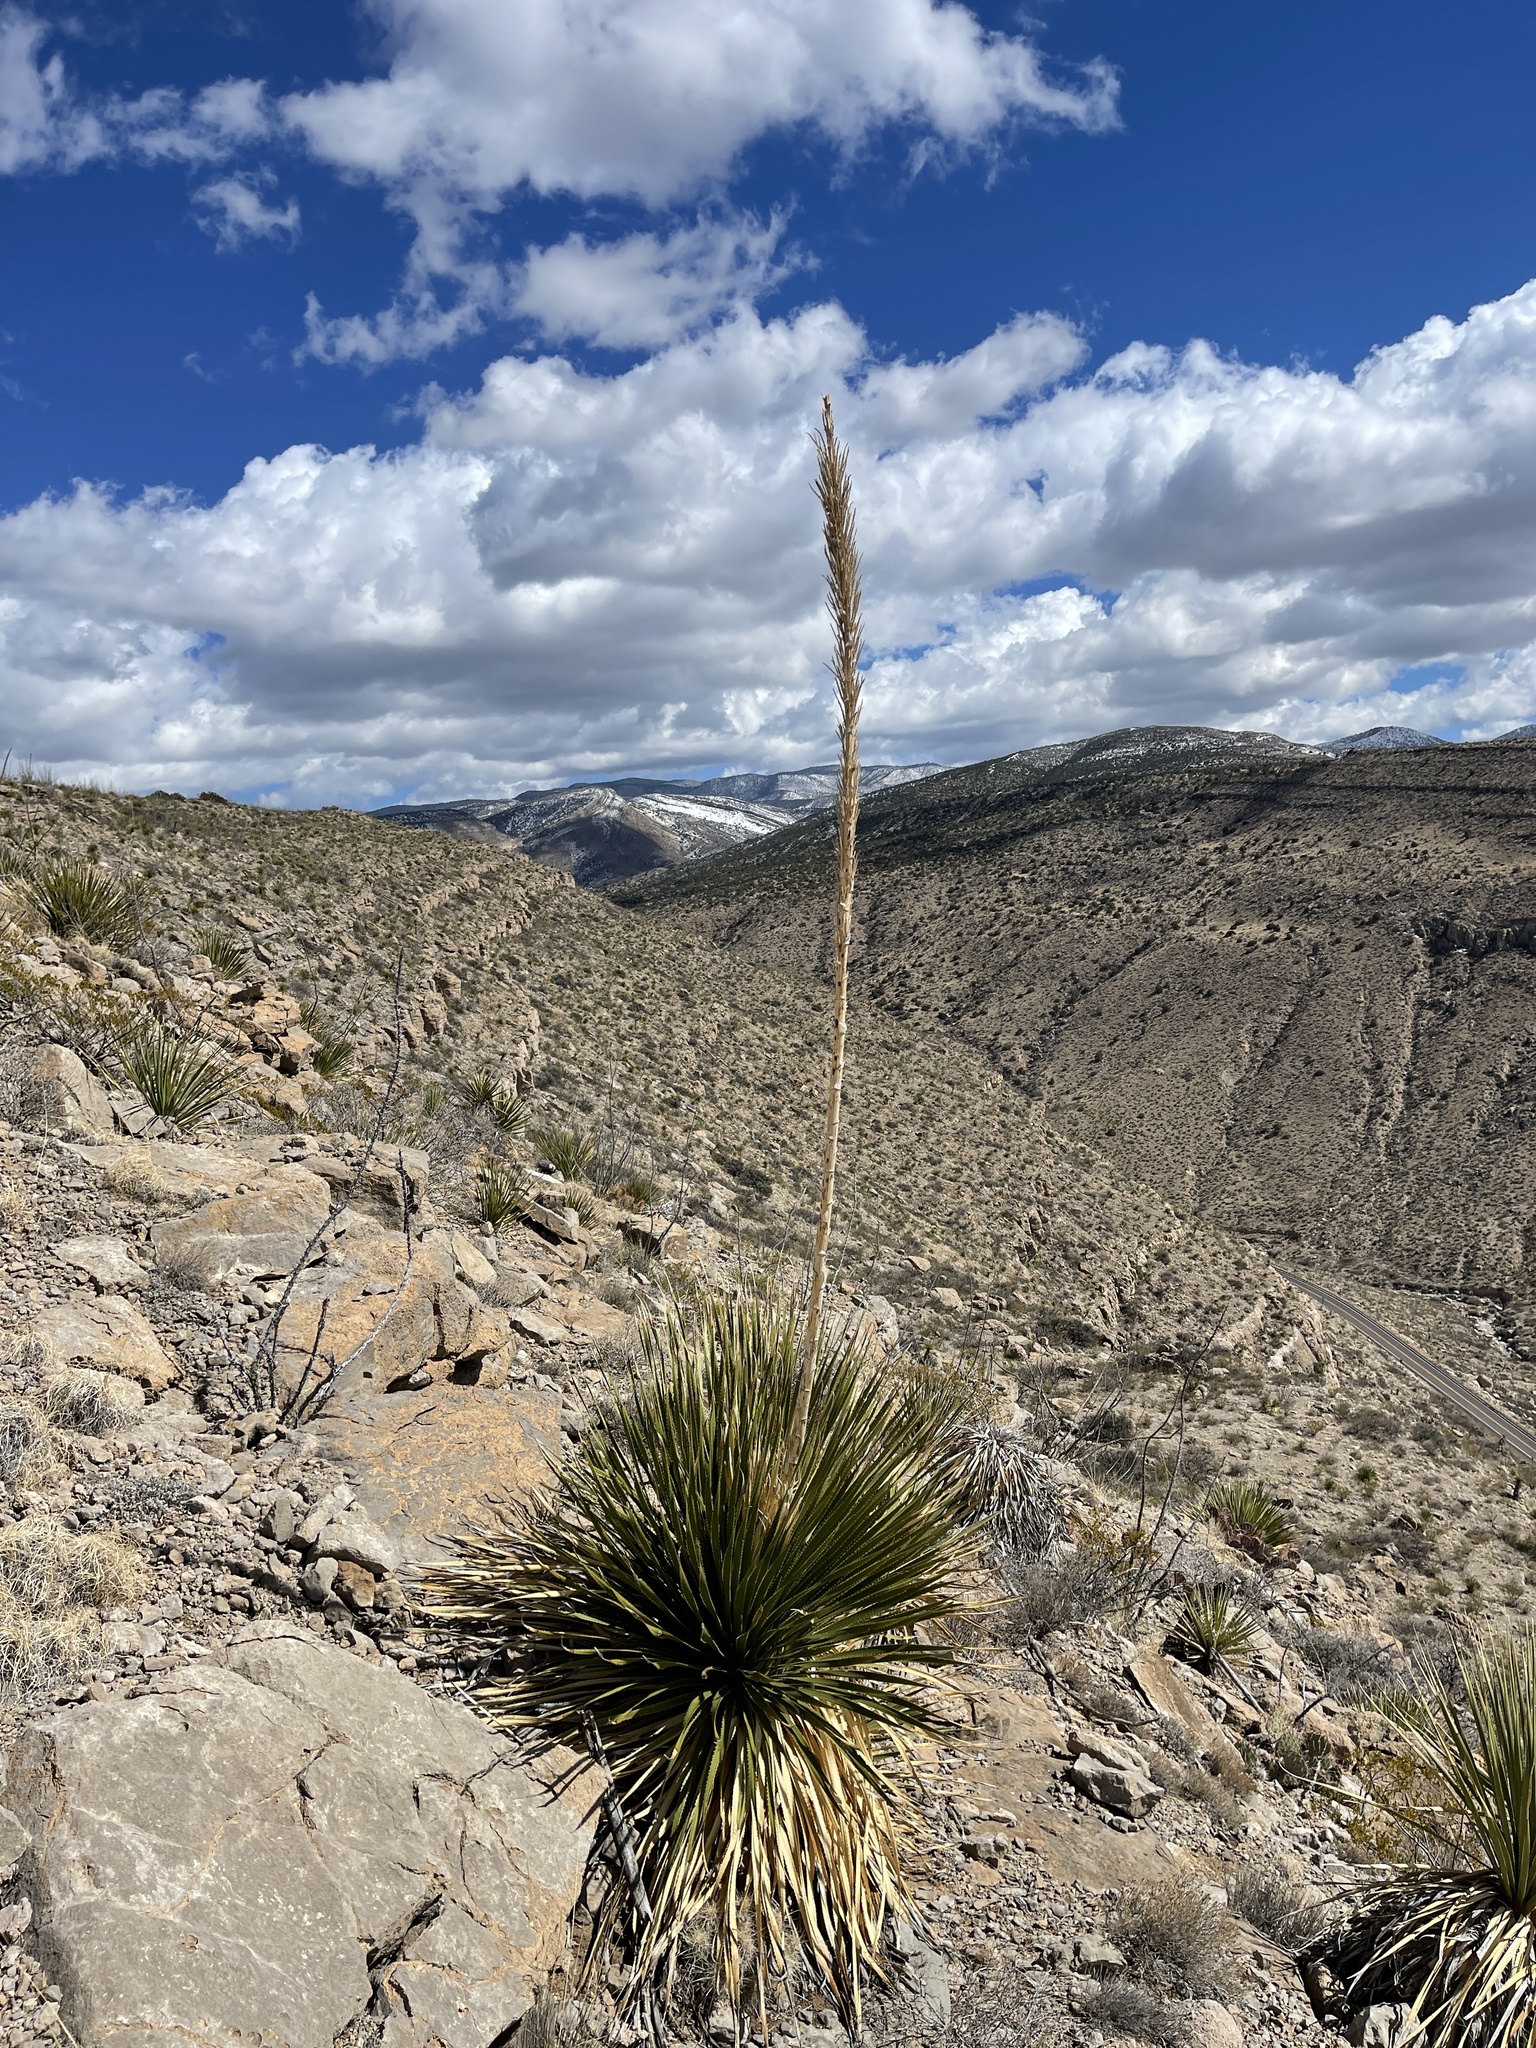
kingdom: Plantae
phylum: Tracheophyta
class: Liliopsida
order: Asparagales
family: Asparagaceae
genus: Dasylirion
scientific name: Dasylirion wheeleri
